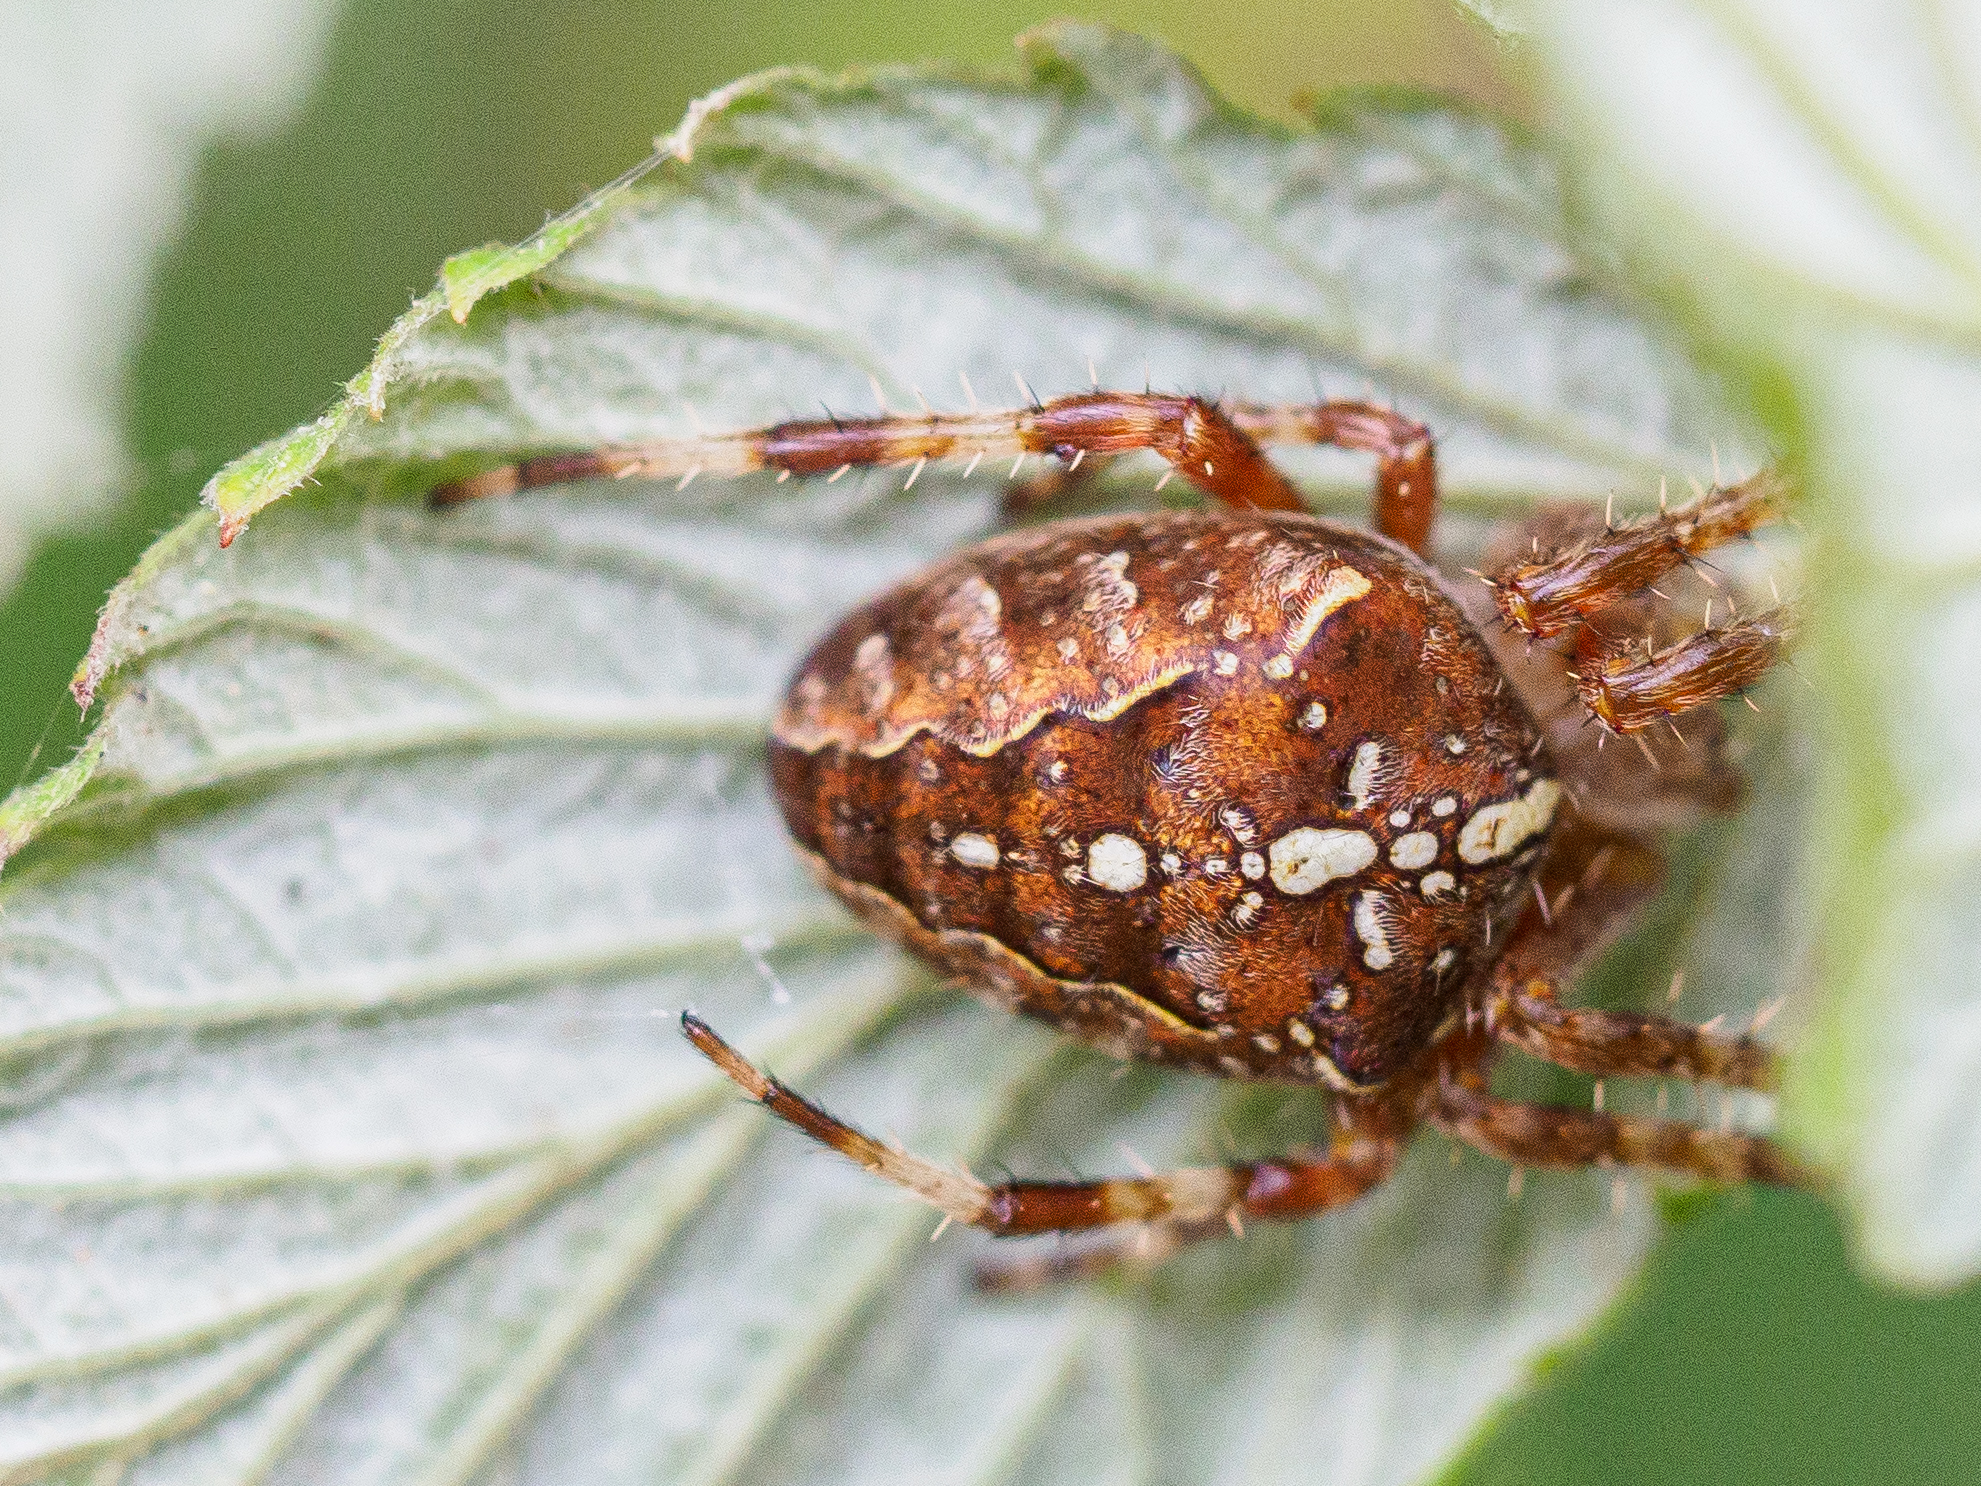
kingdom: Animalia
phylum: Arthropoda
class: Arachnida
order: Araneae
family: Araneidae
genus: Araneus
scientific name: Araneus diadematus
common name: Cross orbweaver
